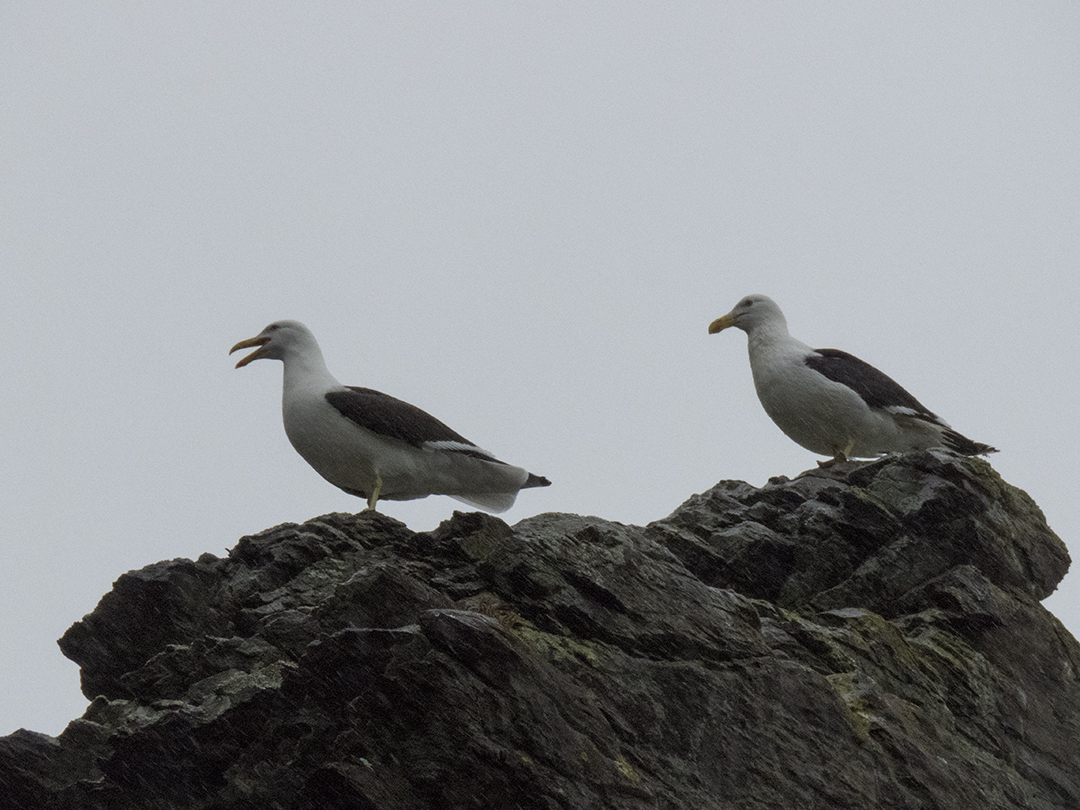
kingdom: Animalia
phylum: Chordata
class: Aves
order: Charadriiformes
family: Laridae
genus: Larus
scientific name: Larus dominicanus
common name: Kelp gull
